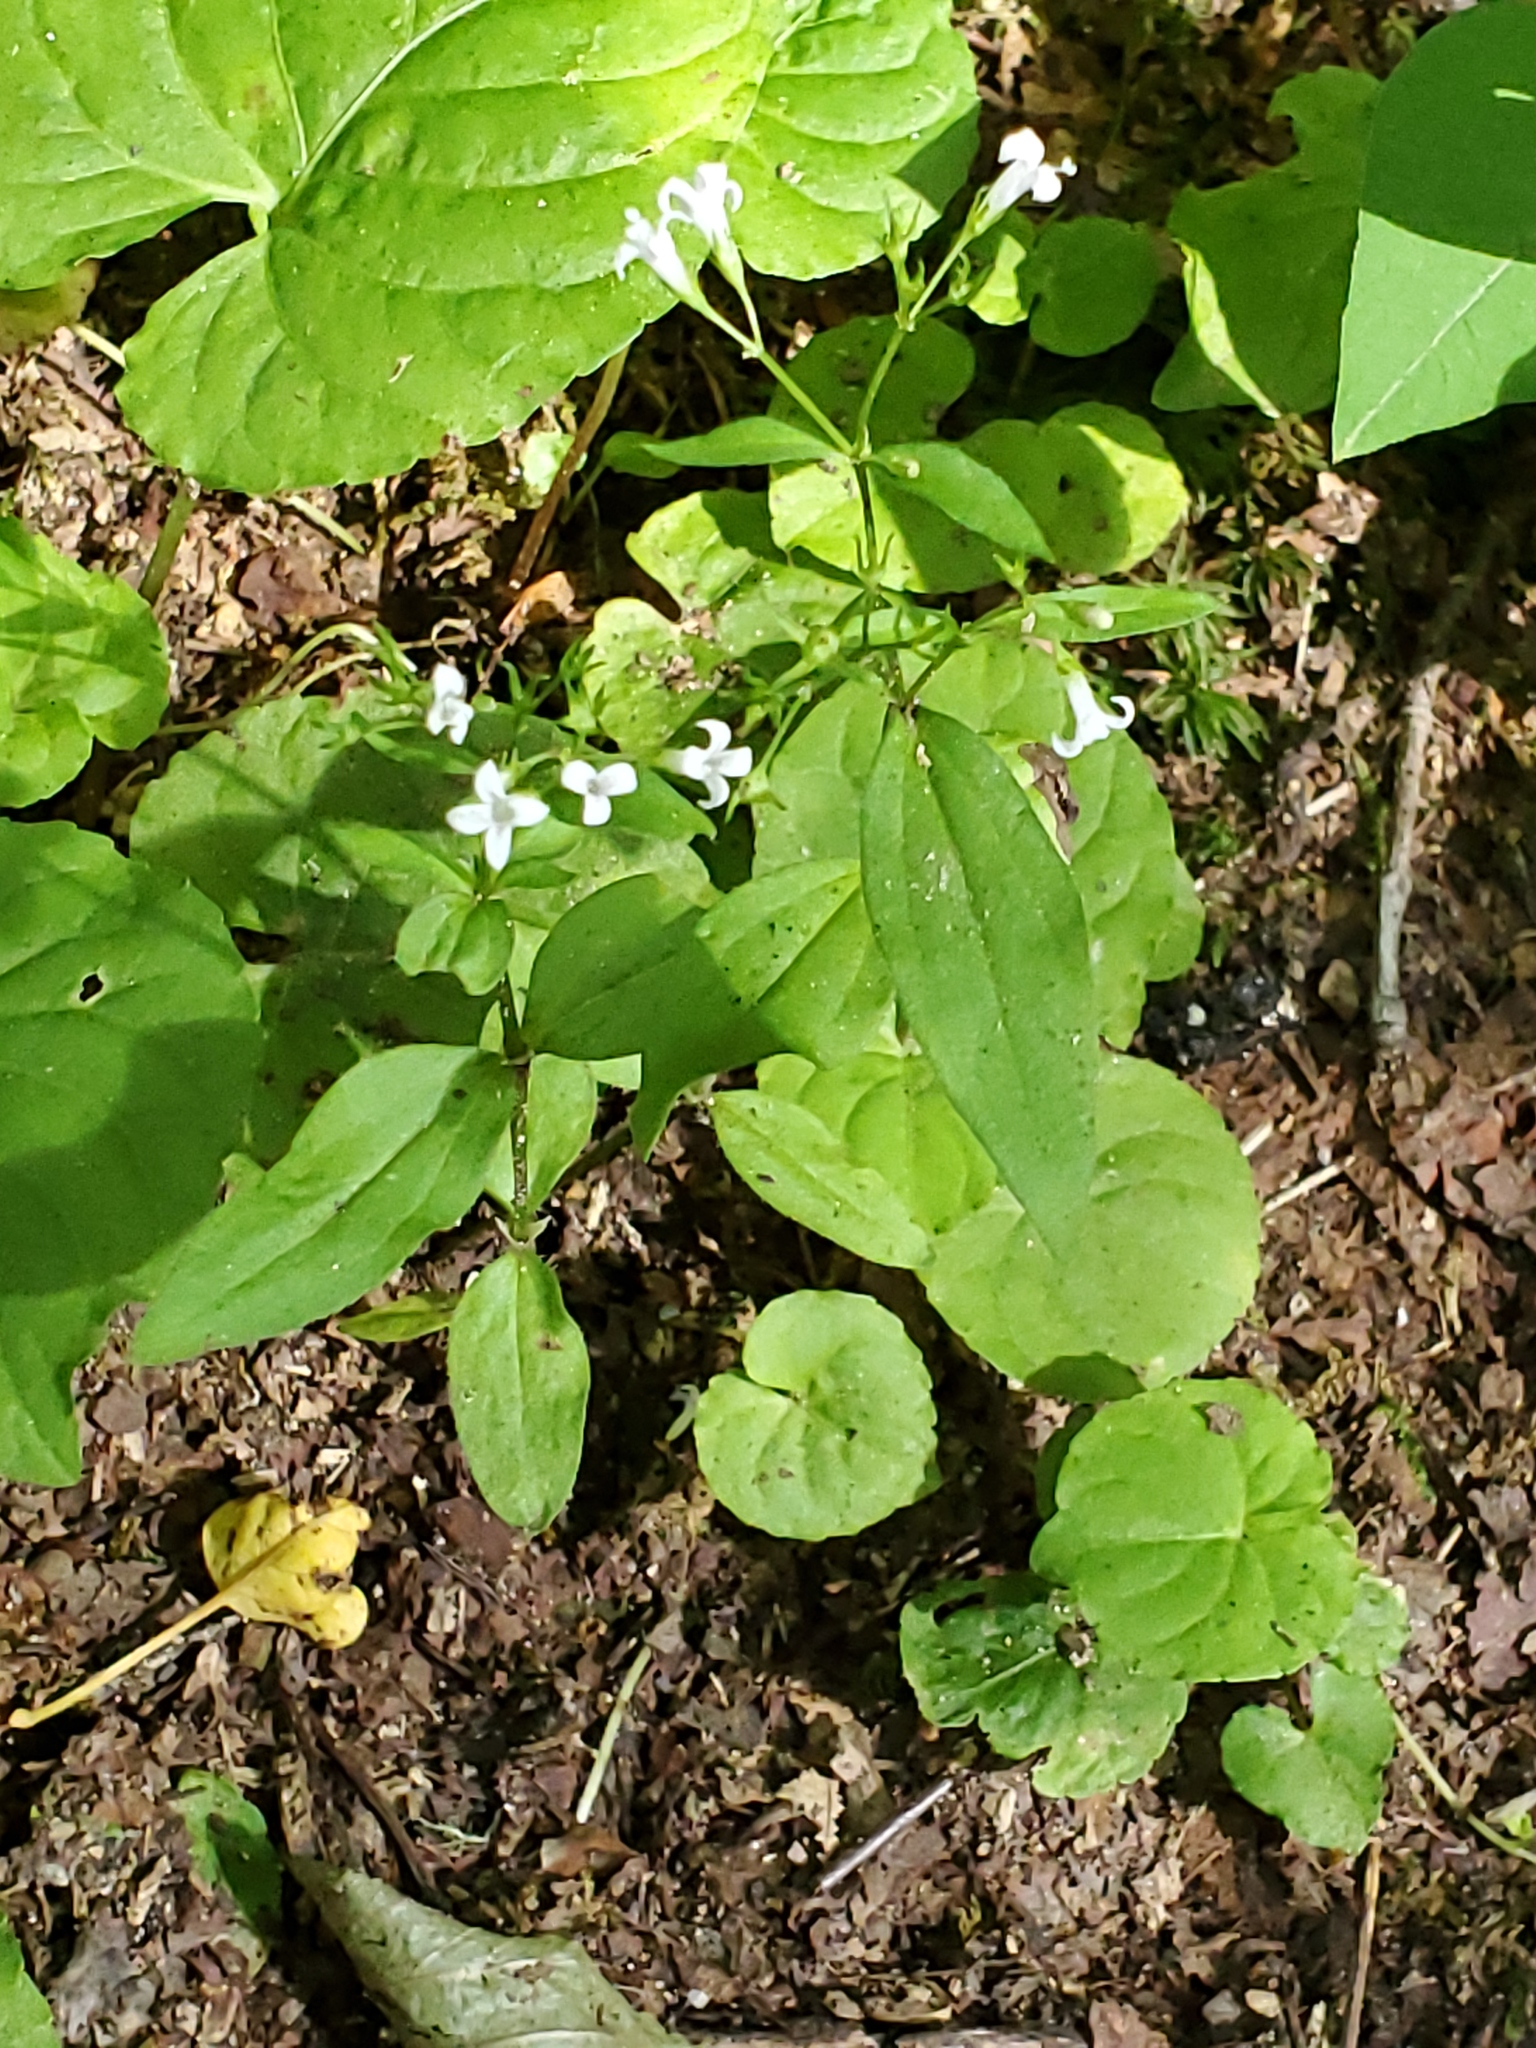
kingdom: Plantae
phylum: Tracheophyta
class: Magnoliopsida
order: Gentianales
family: Rubiaceae
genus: Houstonia
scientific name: Houstonia purpurea
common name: Summer bluet
